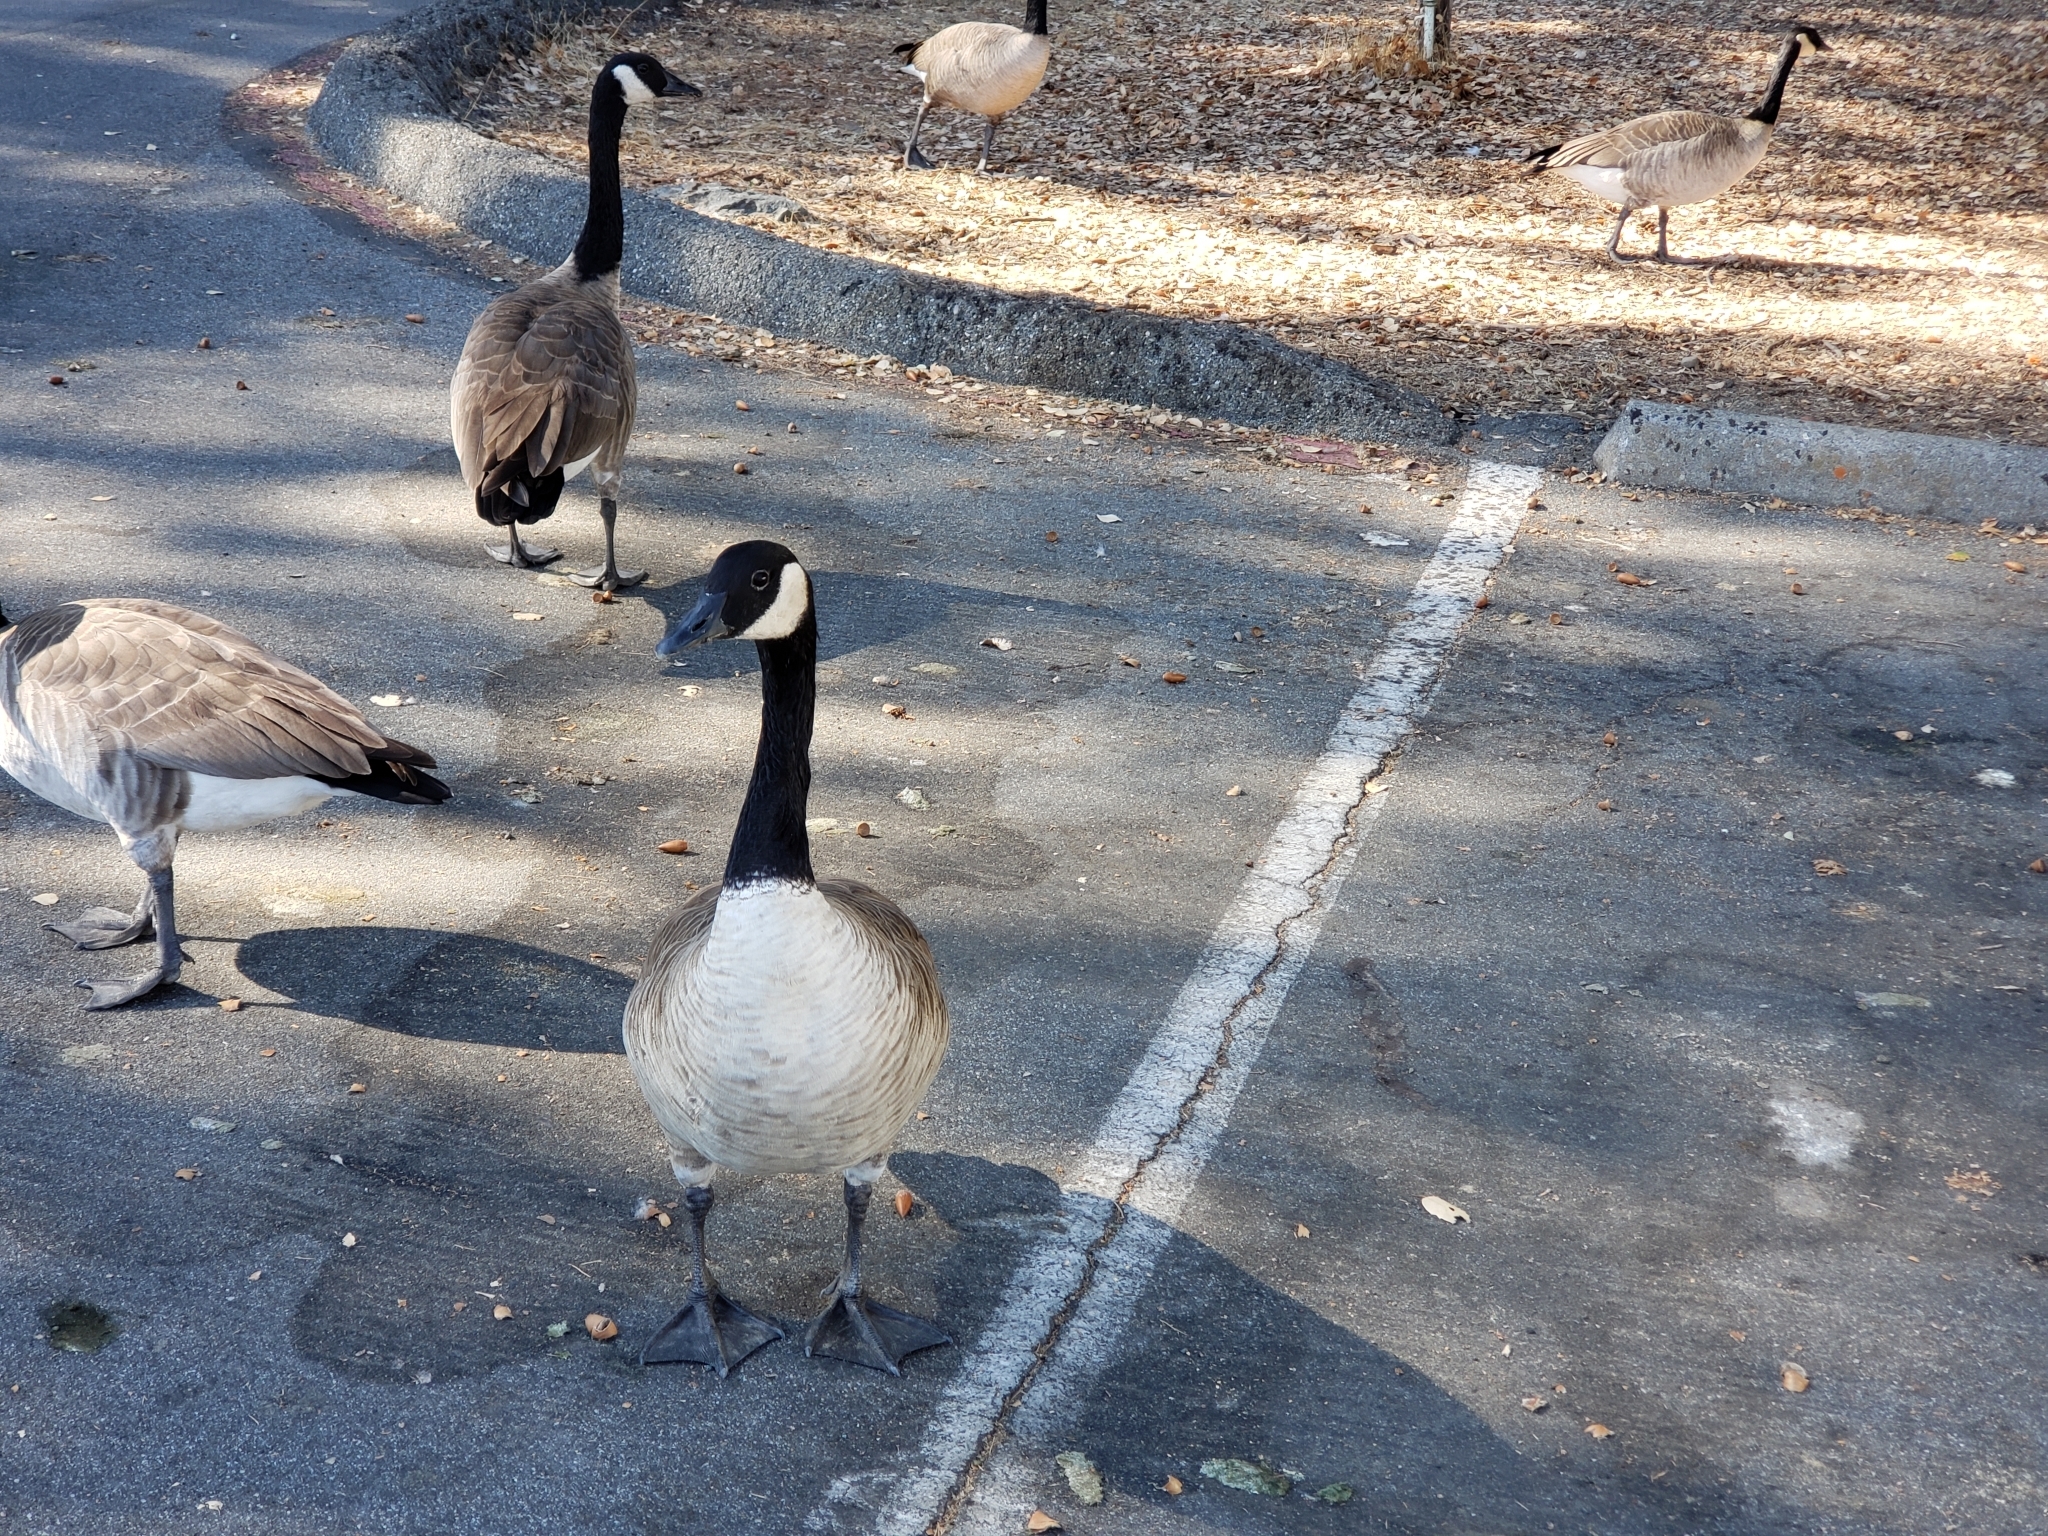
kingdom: Animalia
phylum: Chordata
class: Aves
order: Anseriformes
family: Anatidae
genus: Branta
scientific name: Branta canadensis
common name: Canada goose
